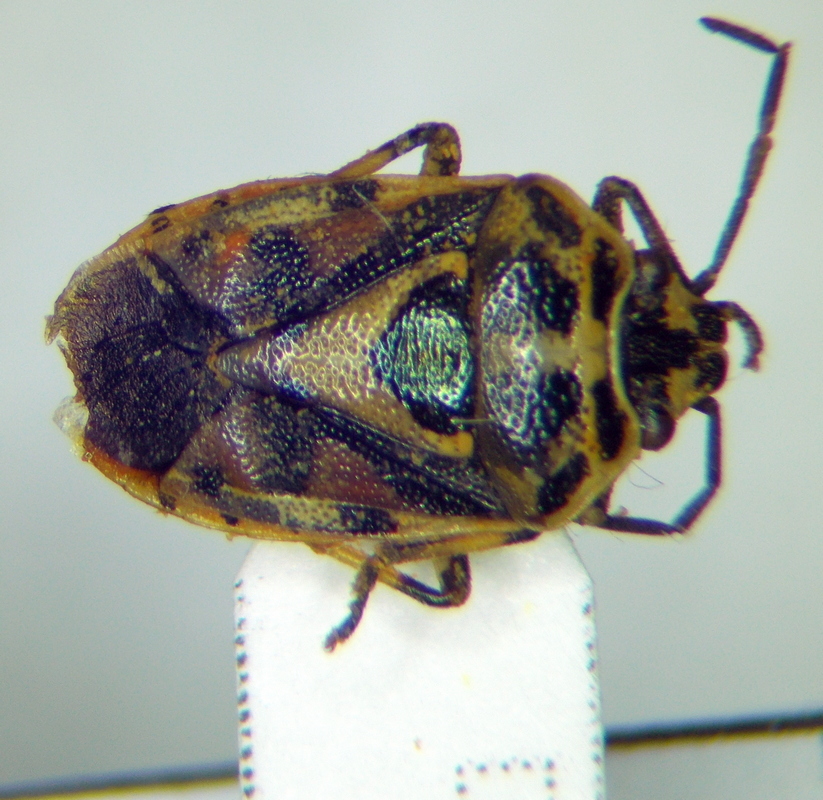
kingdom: Animalia
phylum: Arthropoda
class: Insecta
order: Hemiptera
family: Pentatomidae
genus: Eurydema
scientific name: Eurydema ornata
